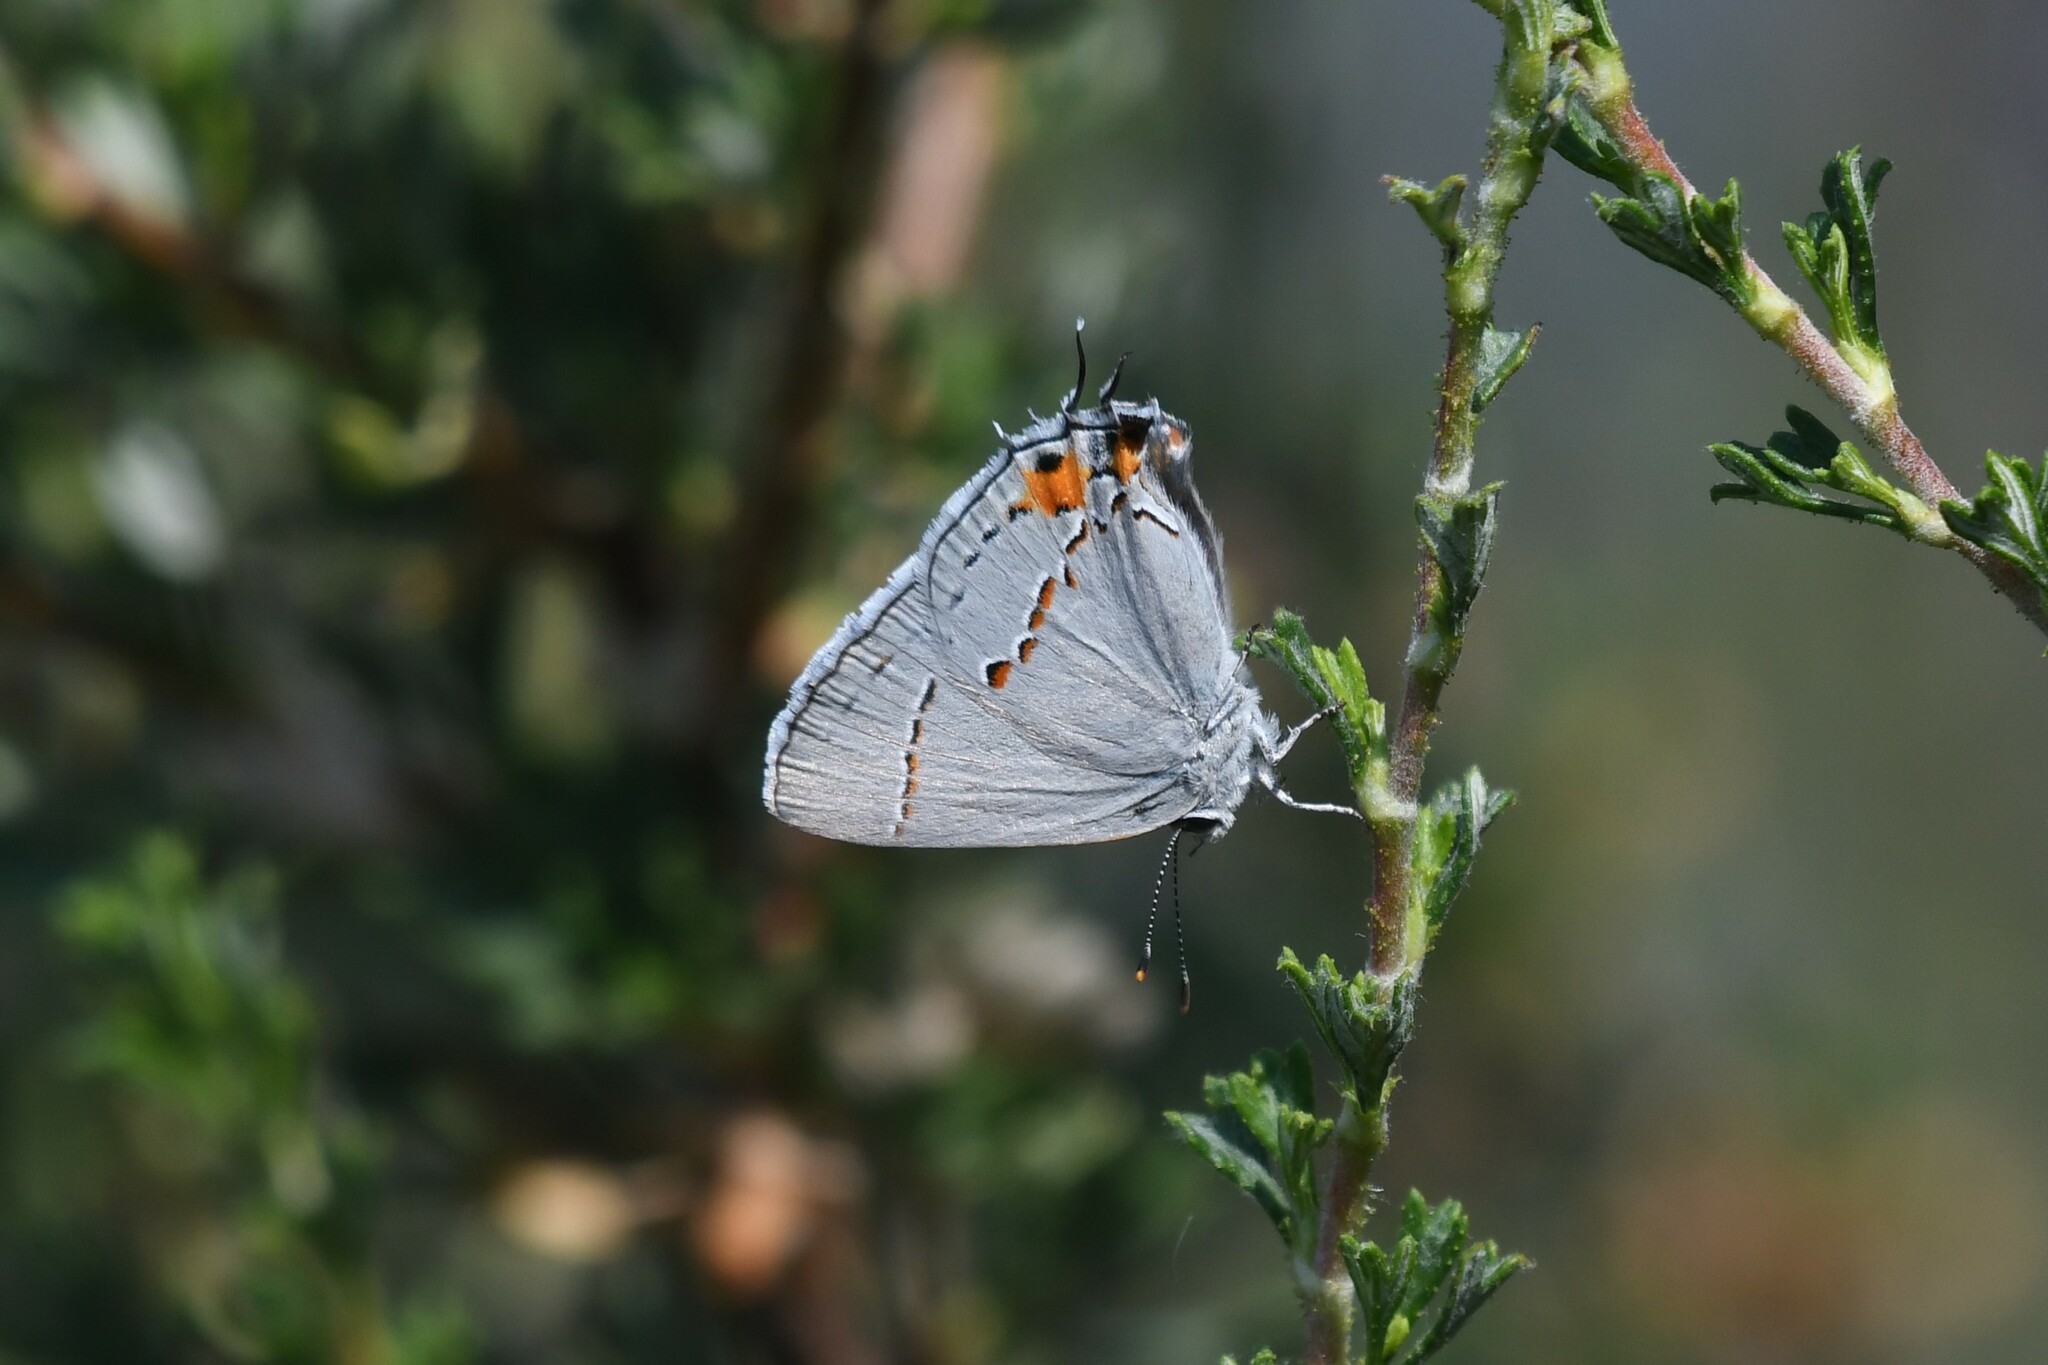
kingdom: Animalia
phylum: Arthropoda
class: Insecta
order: Lepidoptera
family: Lycaenidae
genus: Strymon
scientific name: Strymon melinus
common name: Gray hairstreak
